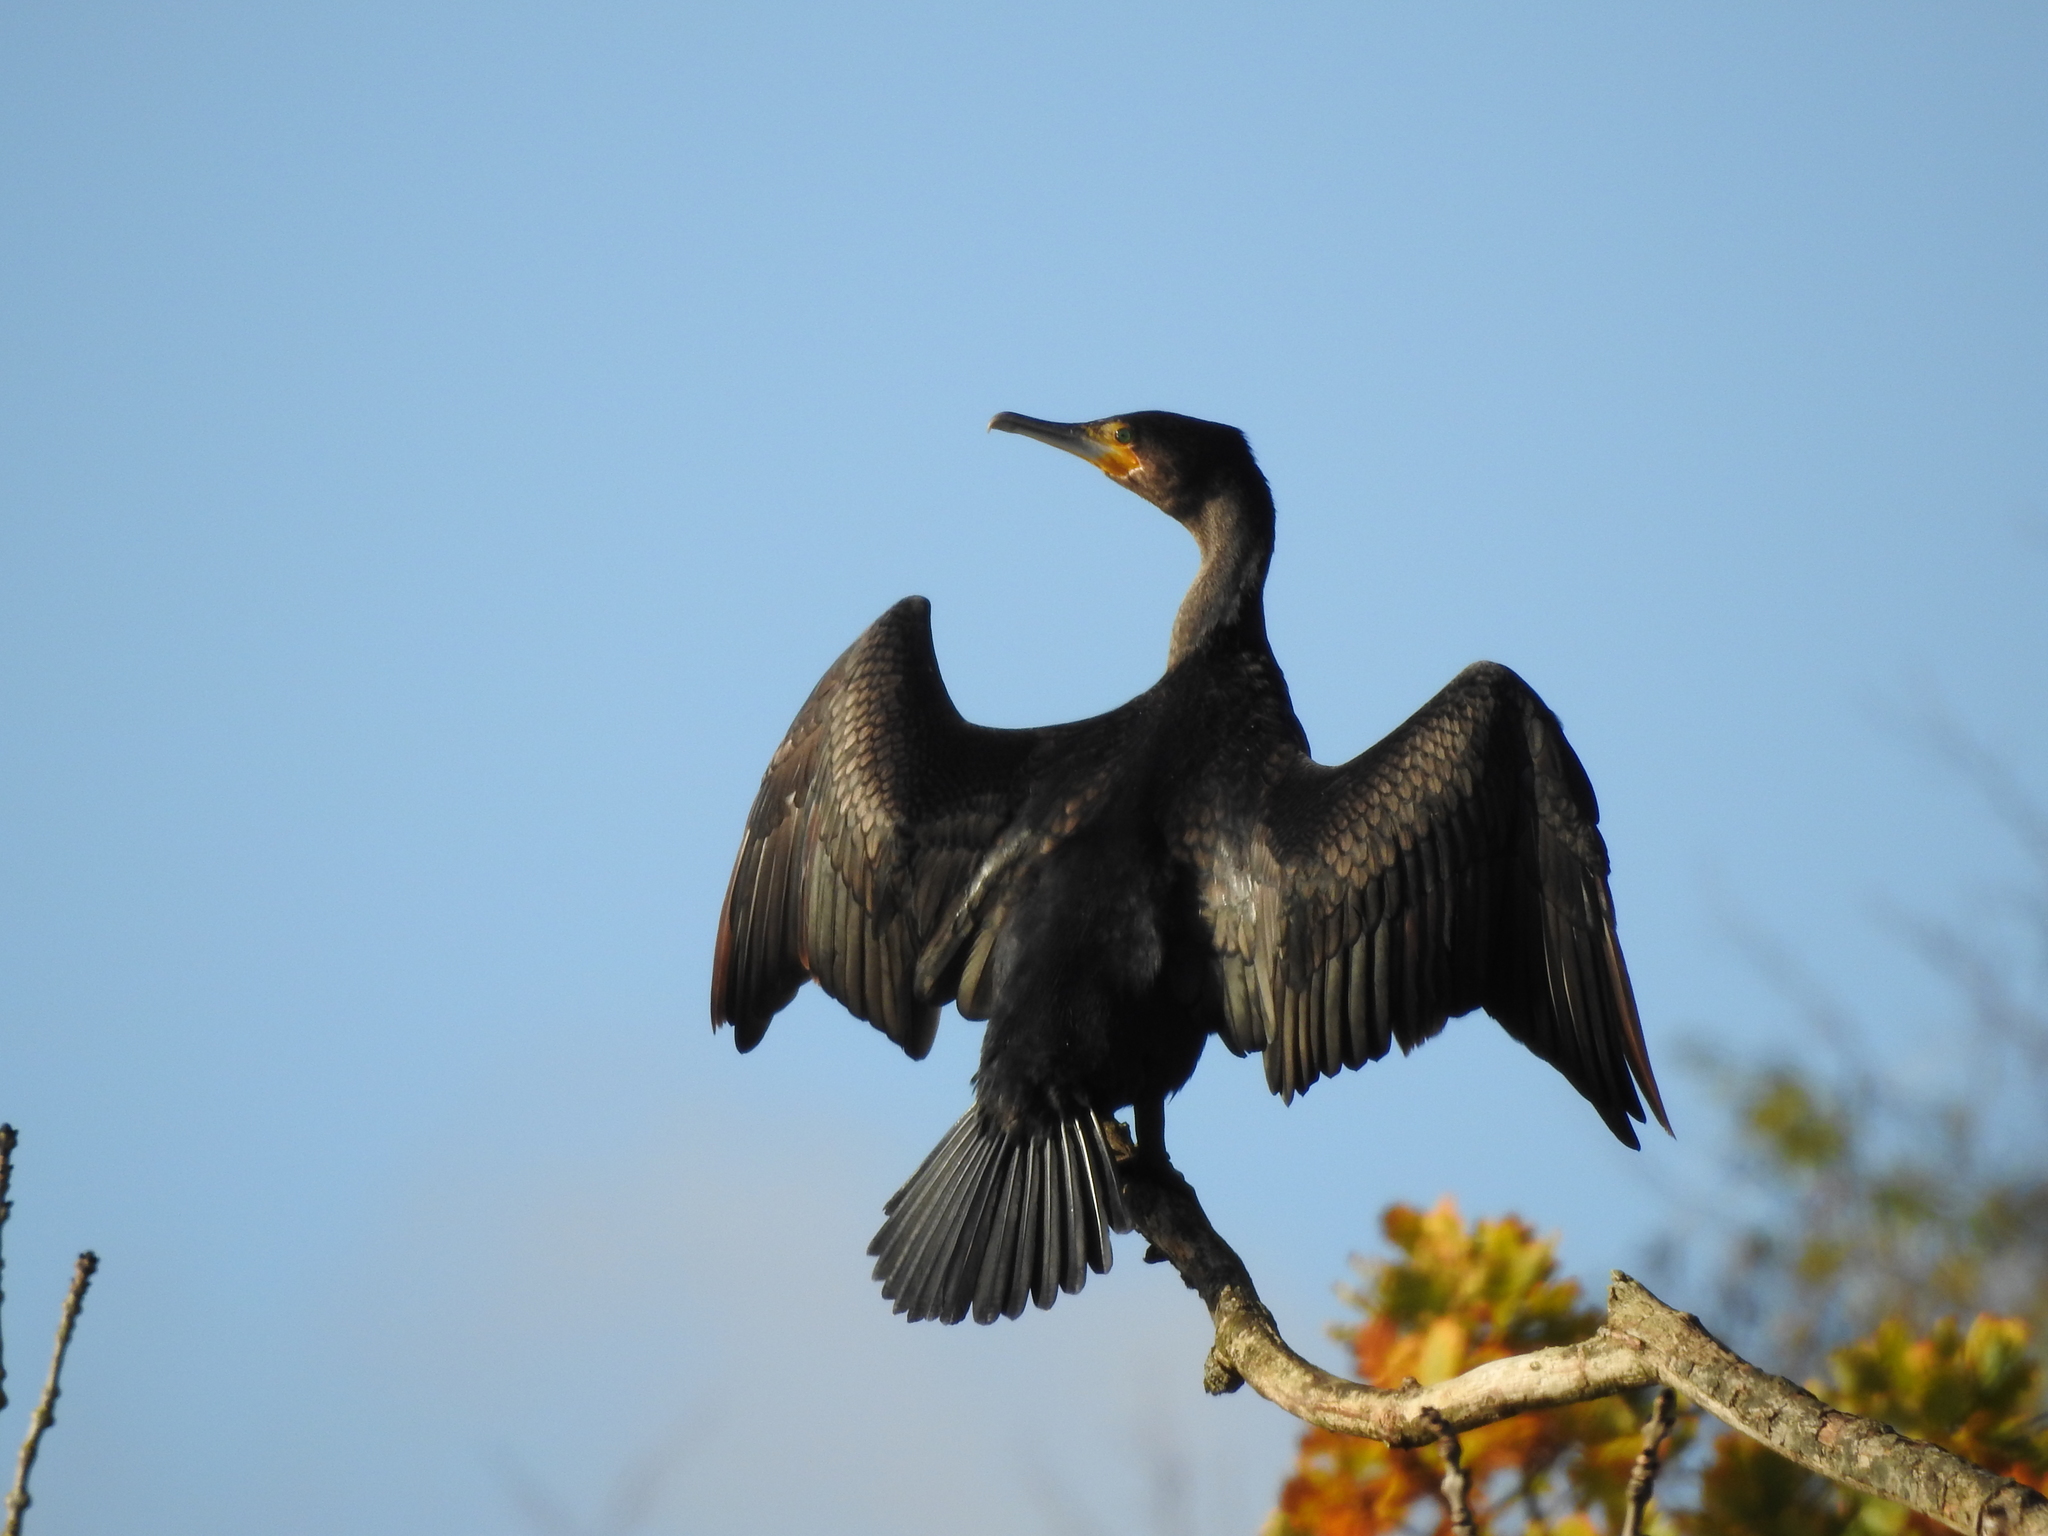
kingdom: Animalia
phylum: Chordata
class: Aves
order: Suliformes
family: Phalacrocoracidae
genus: Phalacrocorax
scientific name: Phalacrocorax carbo
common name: Great cormorant
